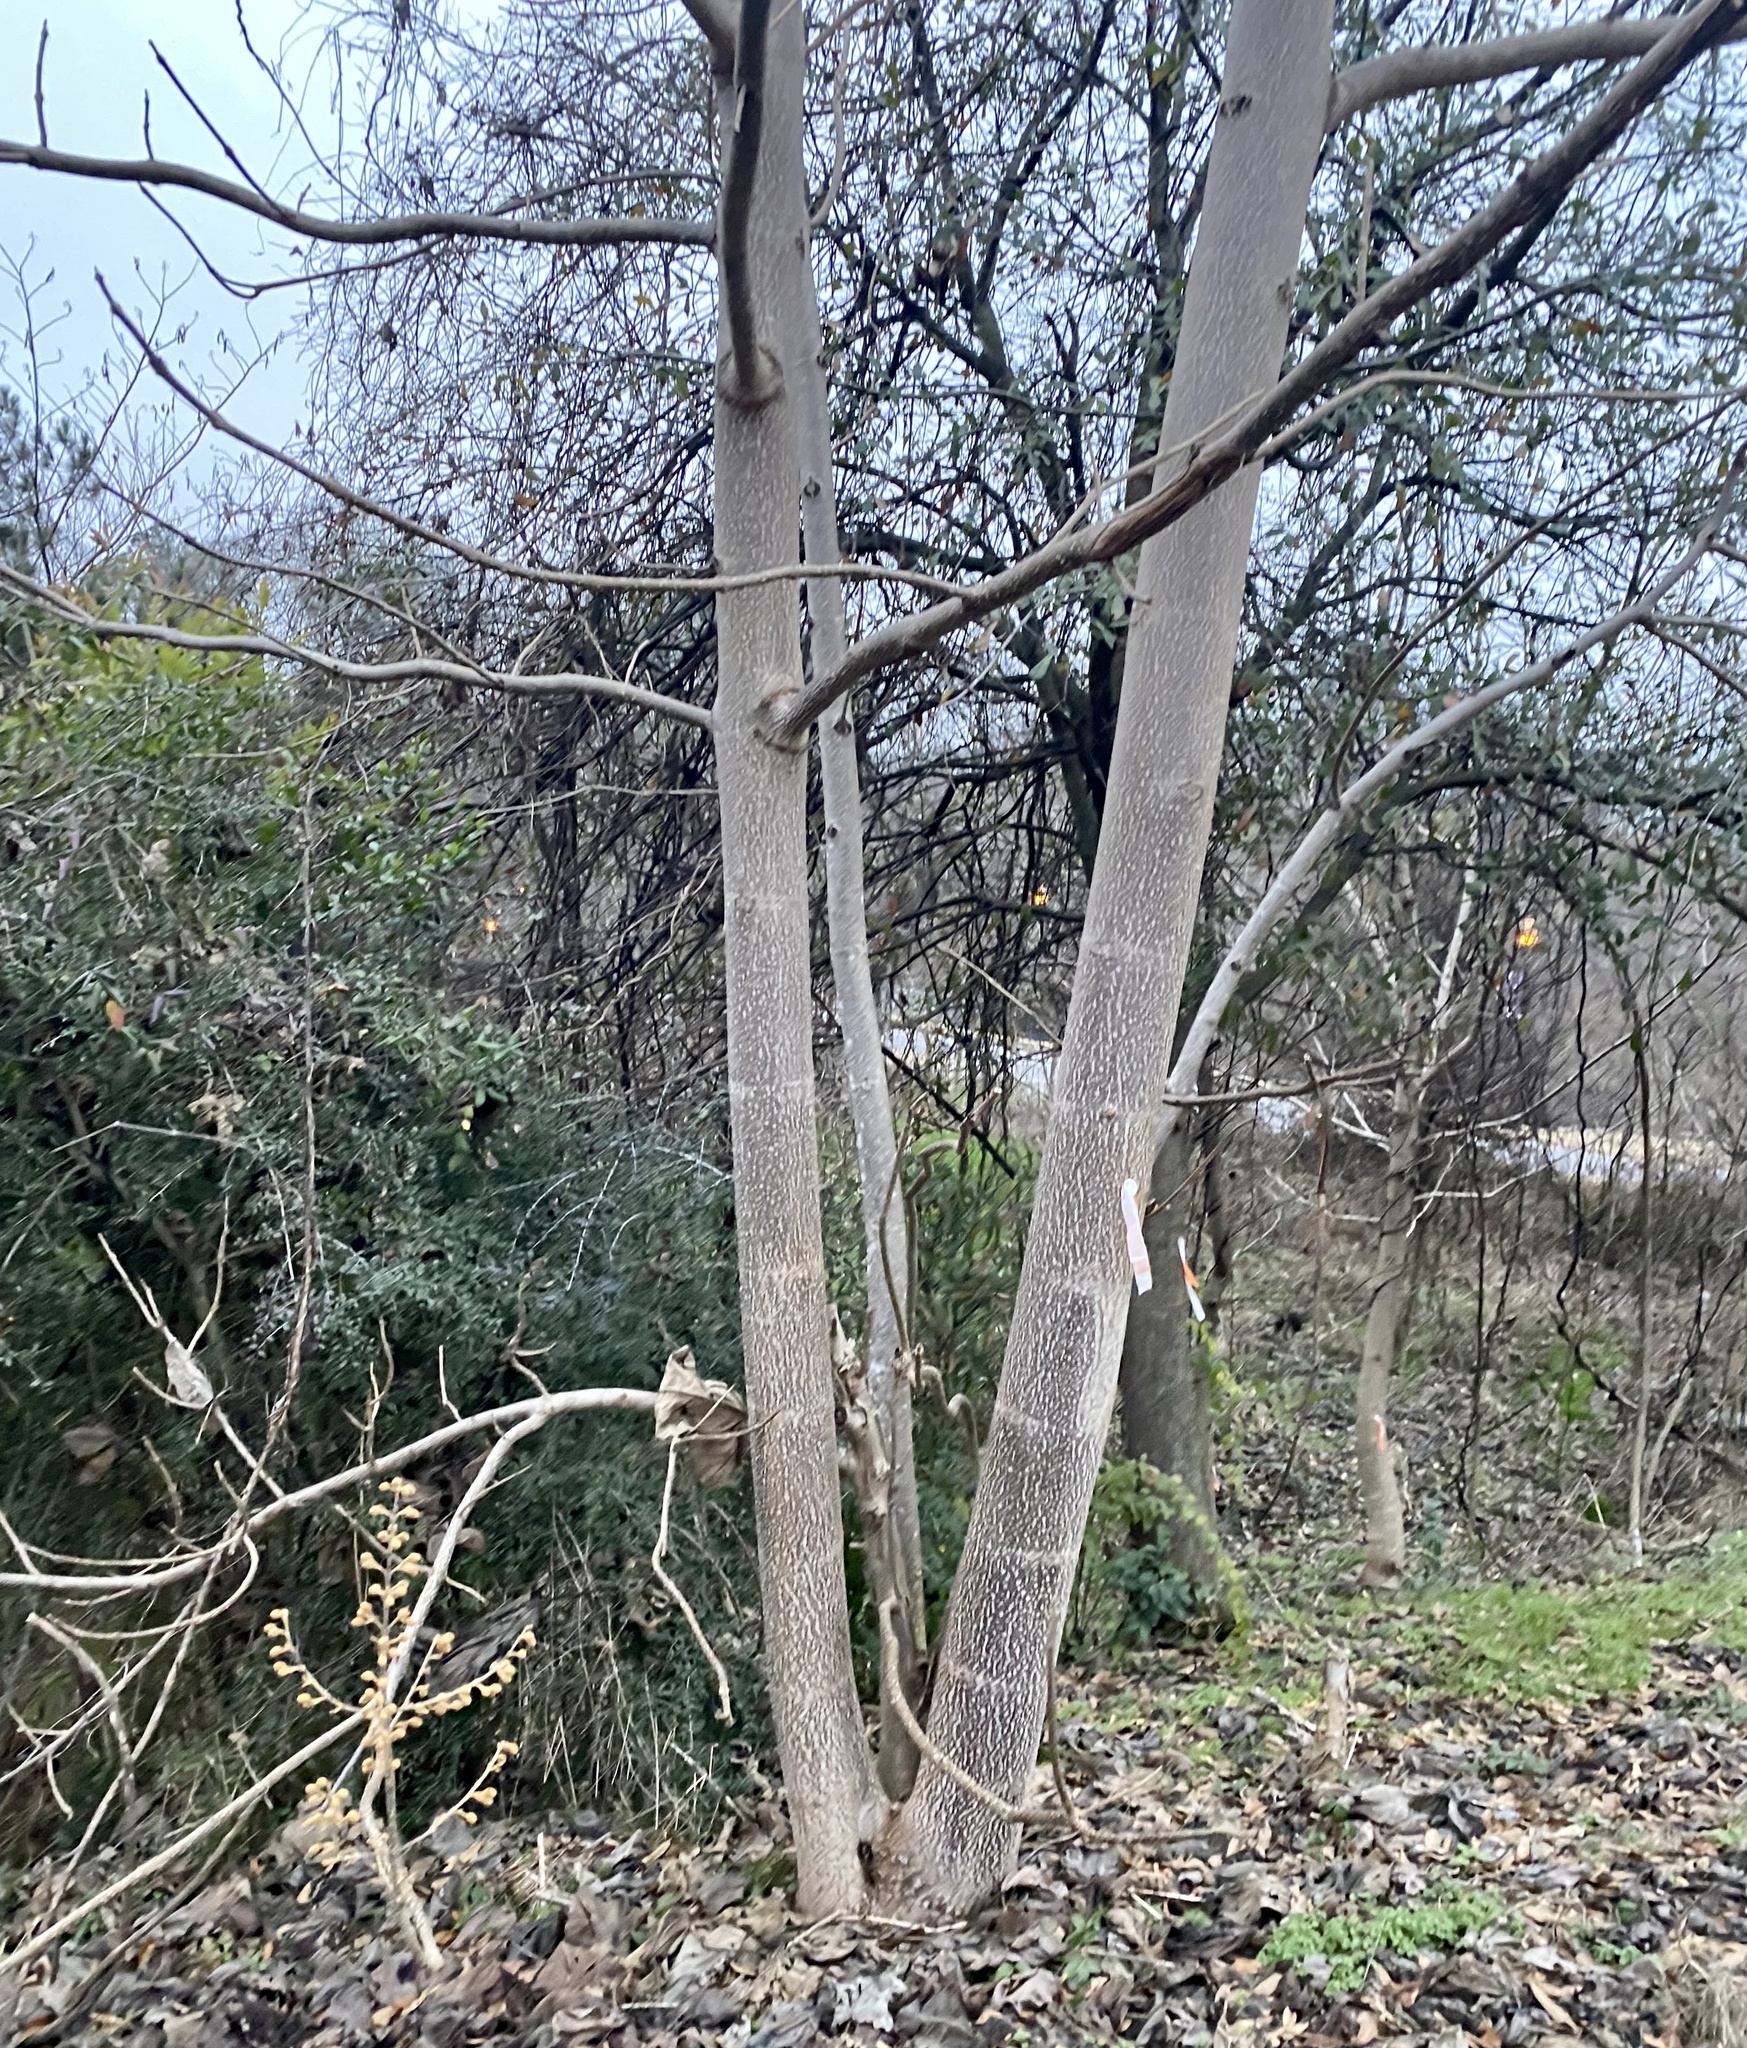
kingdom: Plantae
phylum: Tracheophyta
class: Magnoliopsida
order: Lamiales
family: Paulowniaceae
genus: Paulownia
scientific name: Paulownia tomentosa
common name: Foxglove-tree
